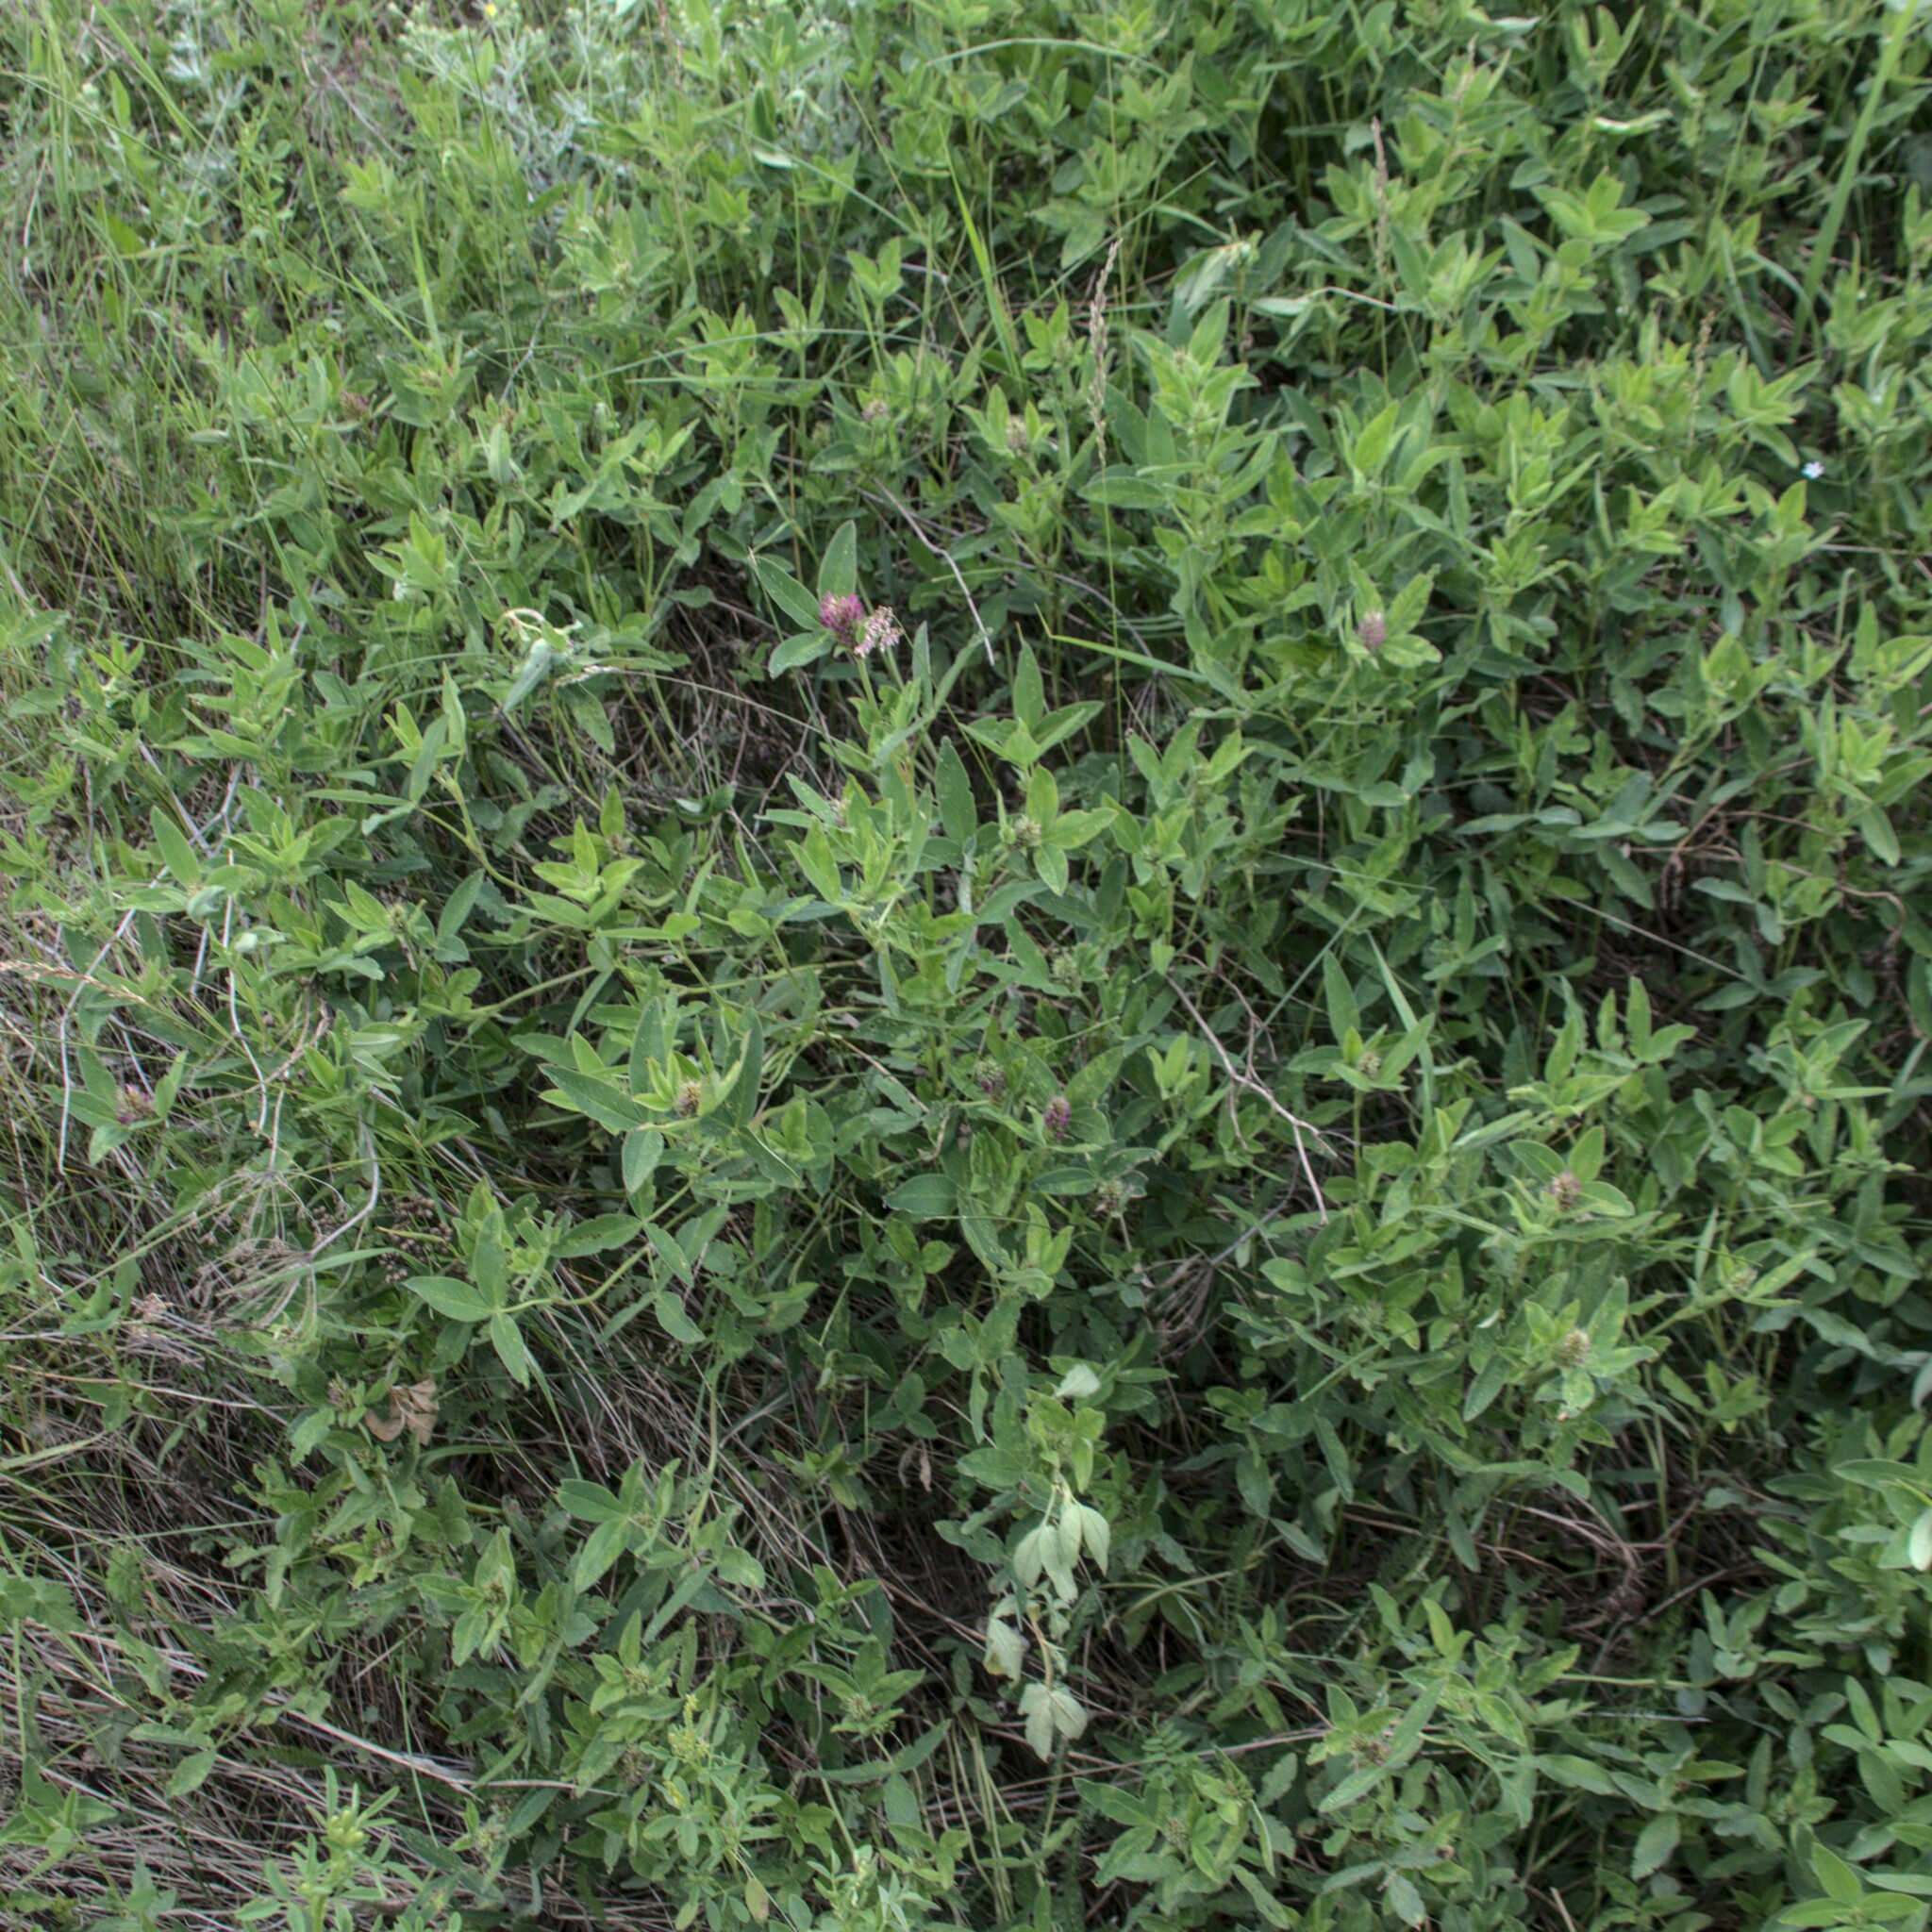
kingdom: Plantae
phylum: Tracheophyta
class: Magnoliopsida
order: Fabales
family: Fabaceae
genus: Trifolium
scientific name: Trifolium medium
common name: Zigzag clover
